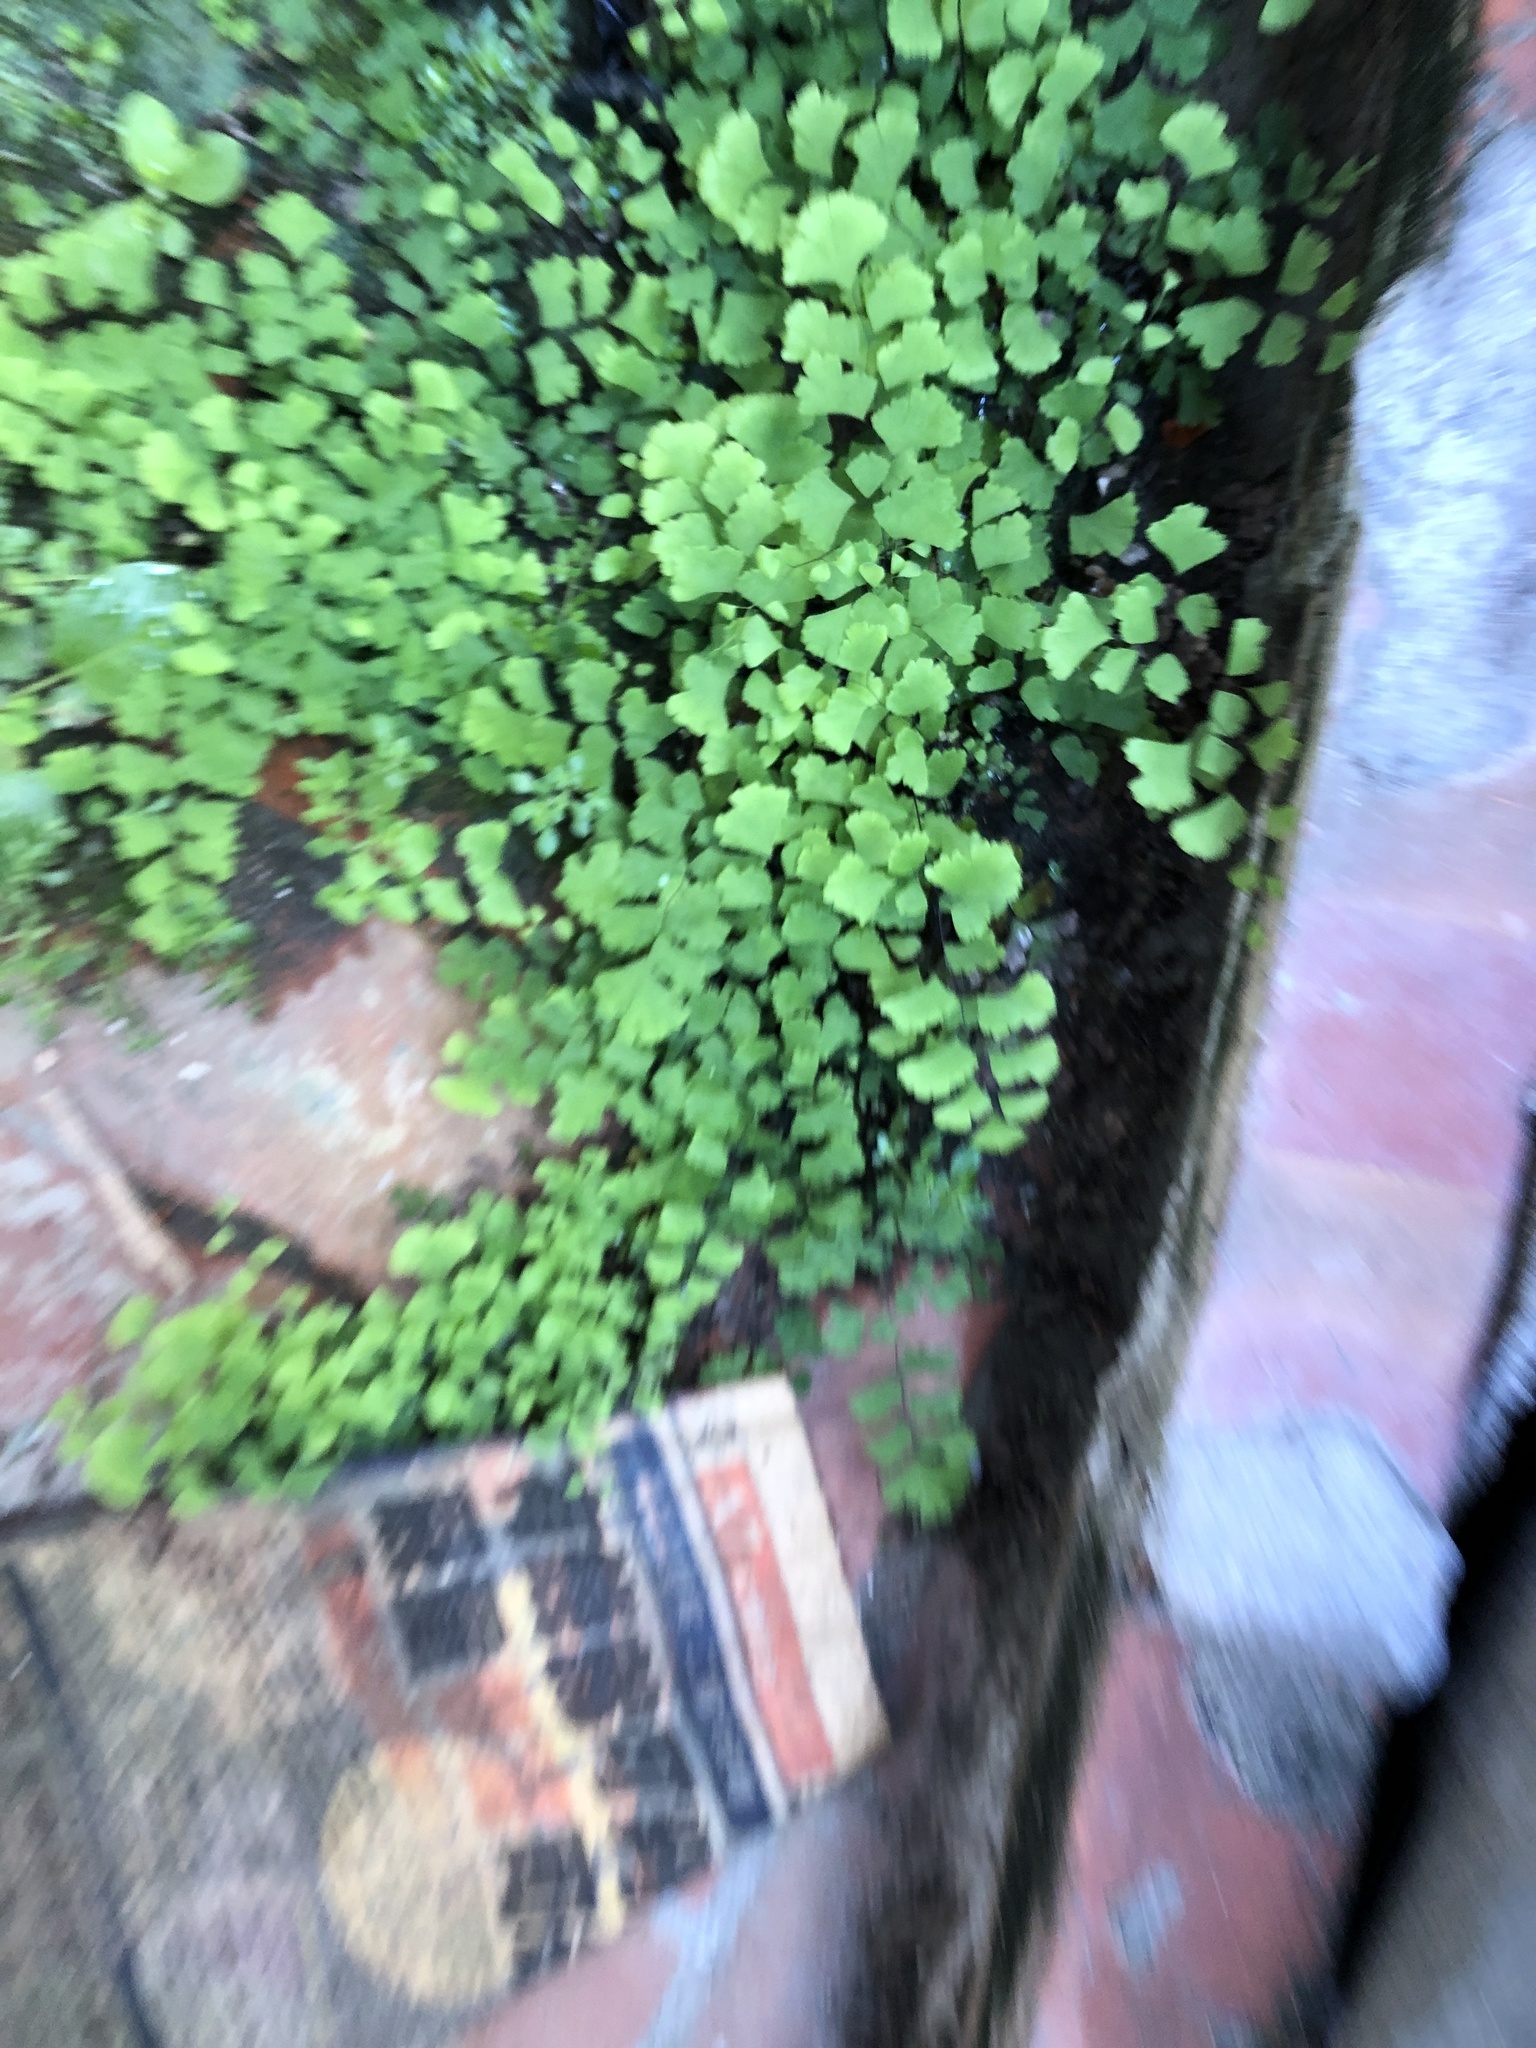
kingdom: Plantae
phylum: Tracheophyta
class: Polypodiopsida
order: Polypodiales
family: Pteridaceae
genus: Adiantum
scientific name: Adiantum capillus-veneris
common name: Maidenhair fern
